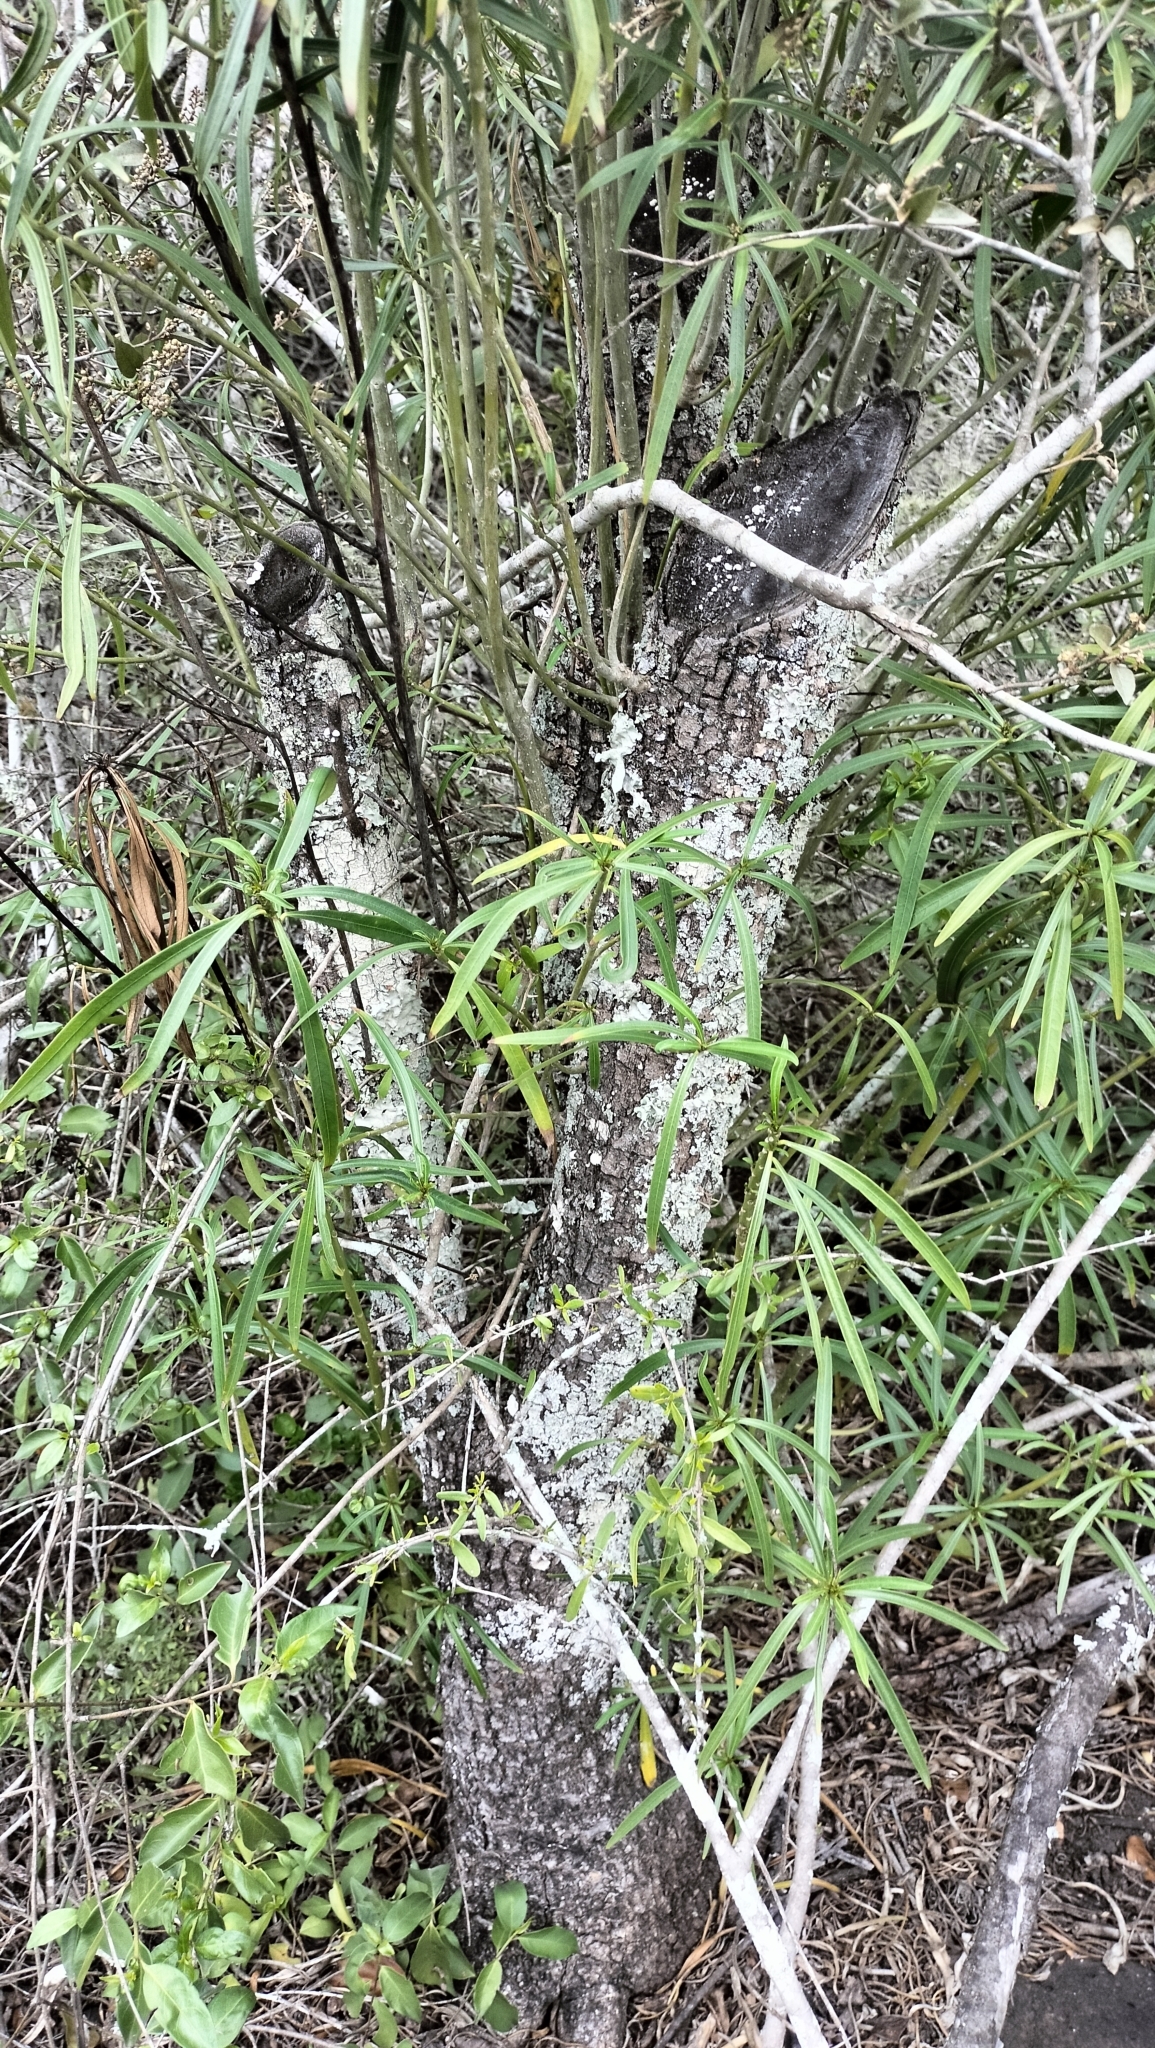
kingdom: Plantae
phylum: Tracheophyta
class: Magnoliopsida
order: Gentianales
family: Apocynaceae
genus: Cascabela
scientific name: Cascabela thevetia
